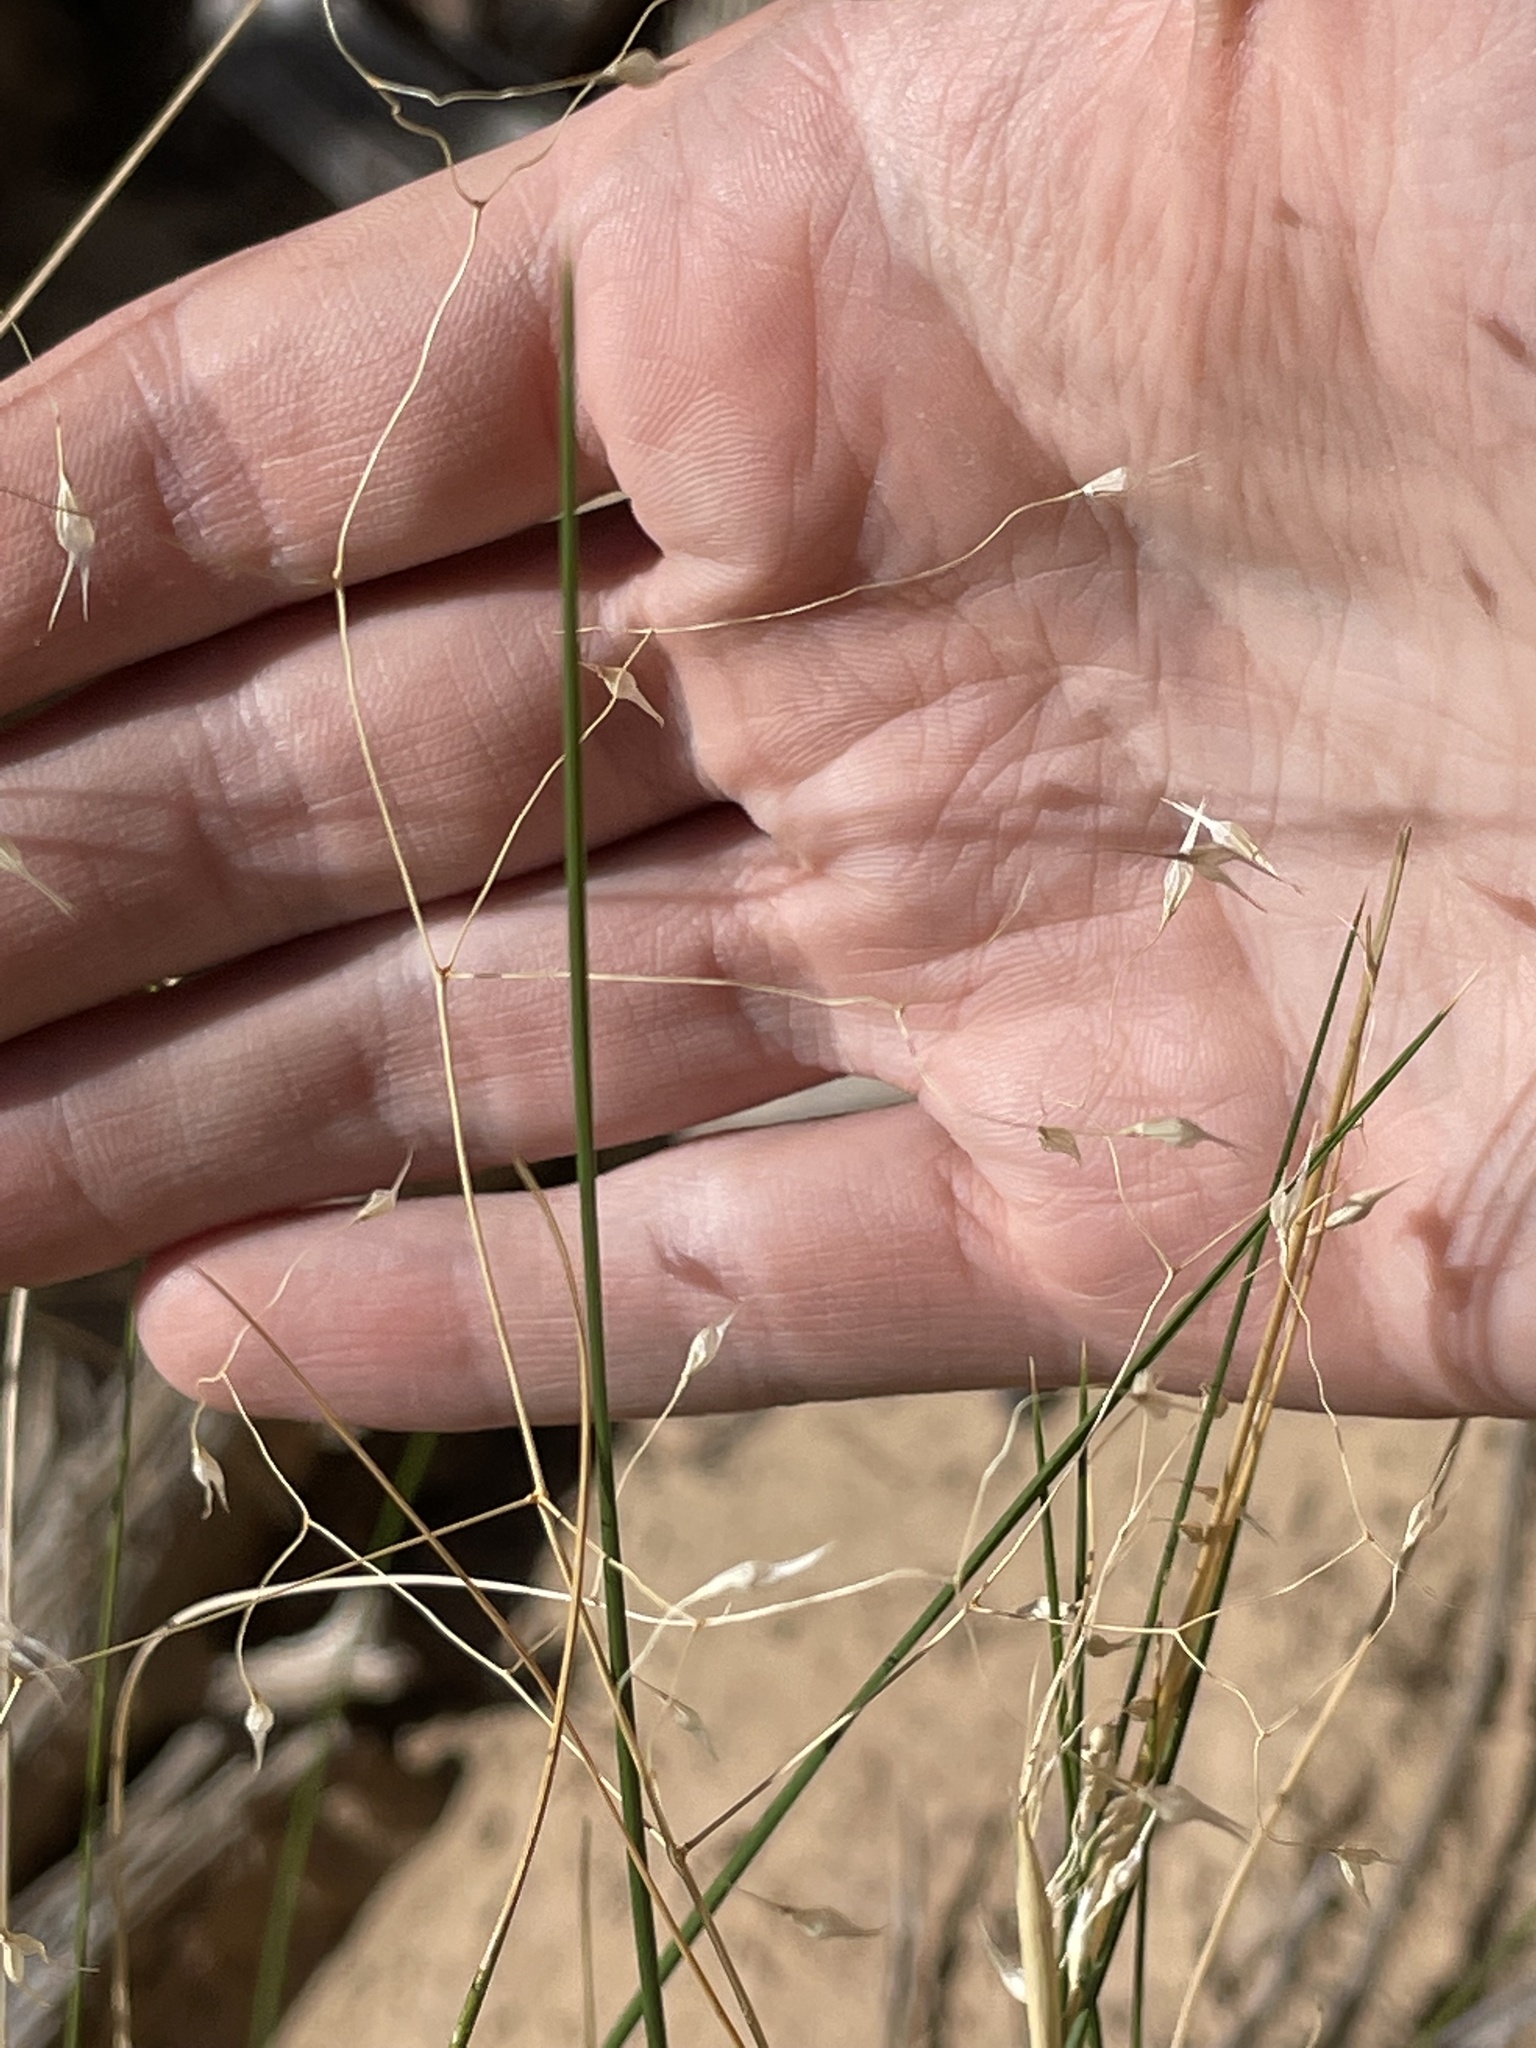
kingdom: Plantae
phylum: Tracheophyta
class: Liliopsida
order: Poales
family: Poaceae
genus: Eriocoma
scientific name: Eriocoma hymenoides
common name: Indian mountain ricegrass
